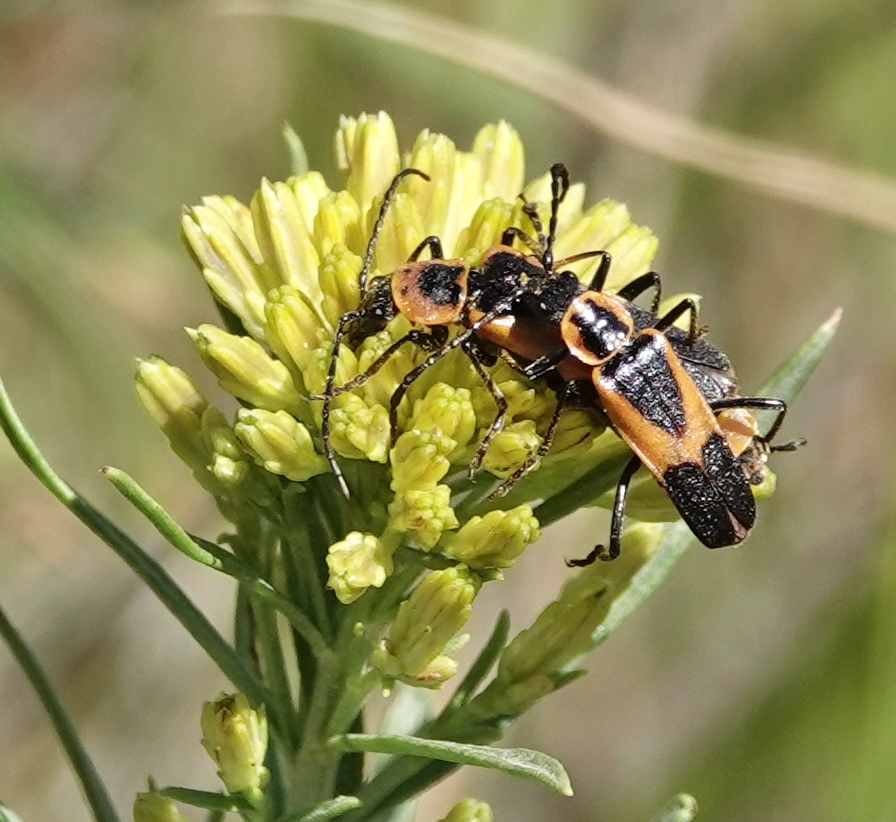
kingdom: Animalia
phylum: Arthropoda
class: Insecta
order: Coleoptera
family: Cantharidae
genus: Chauliognathus
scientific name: Chauliognathus basalis
